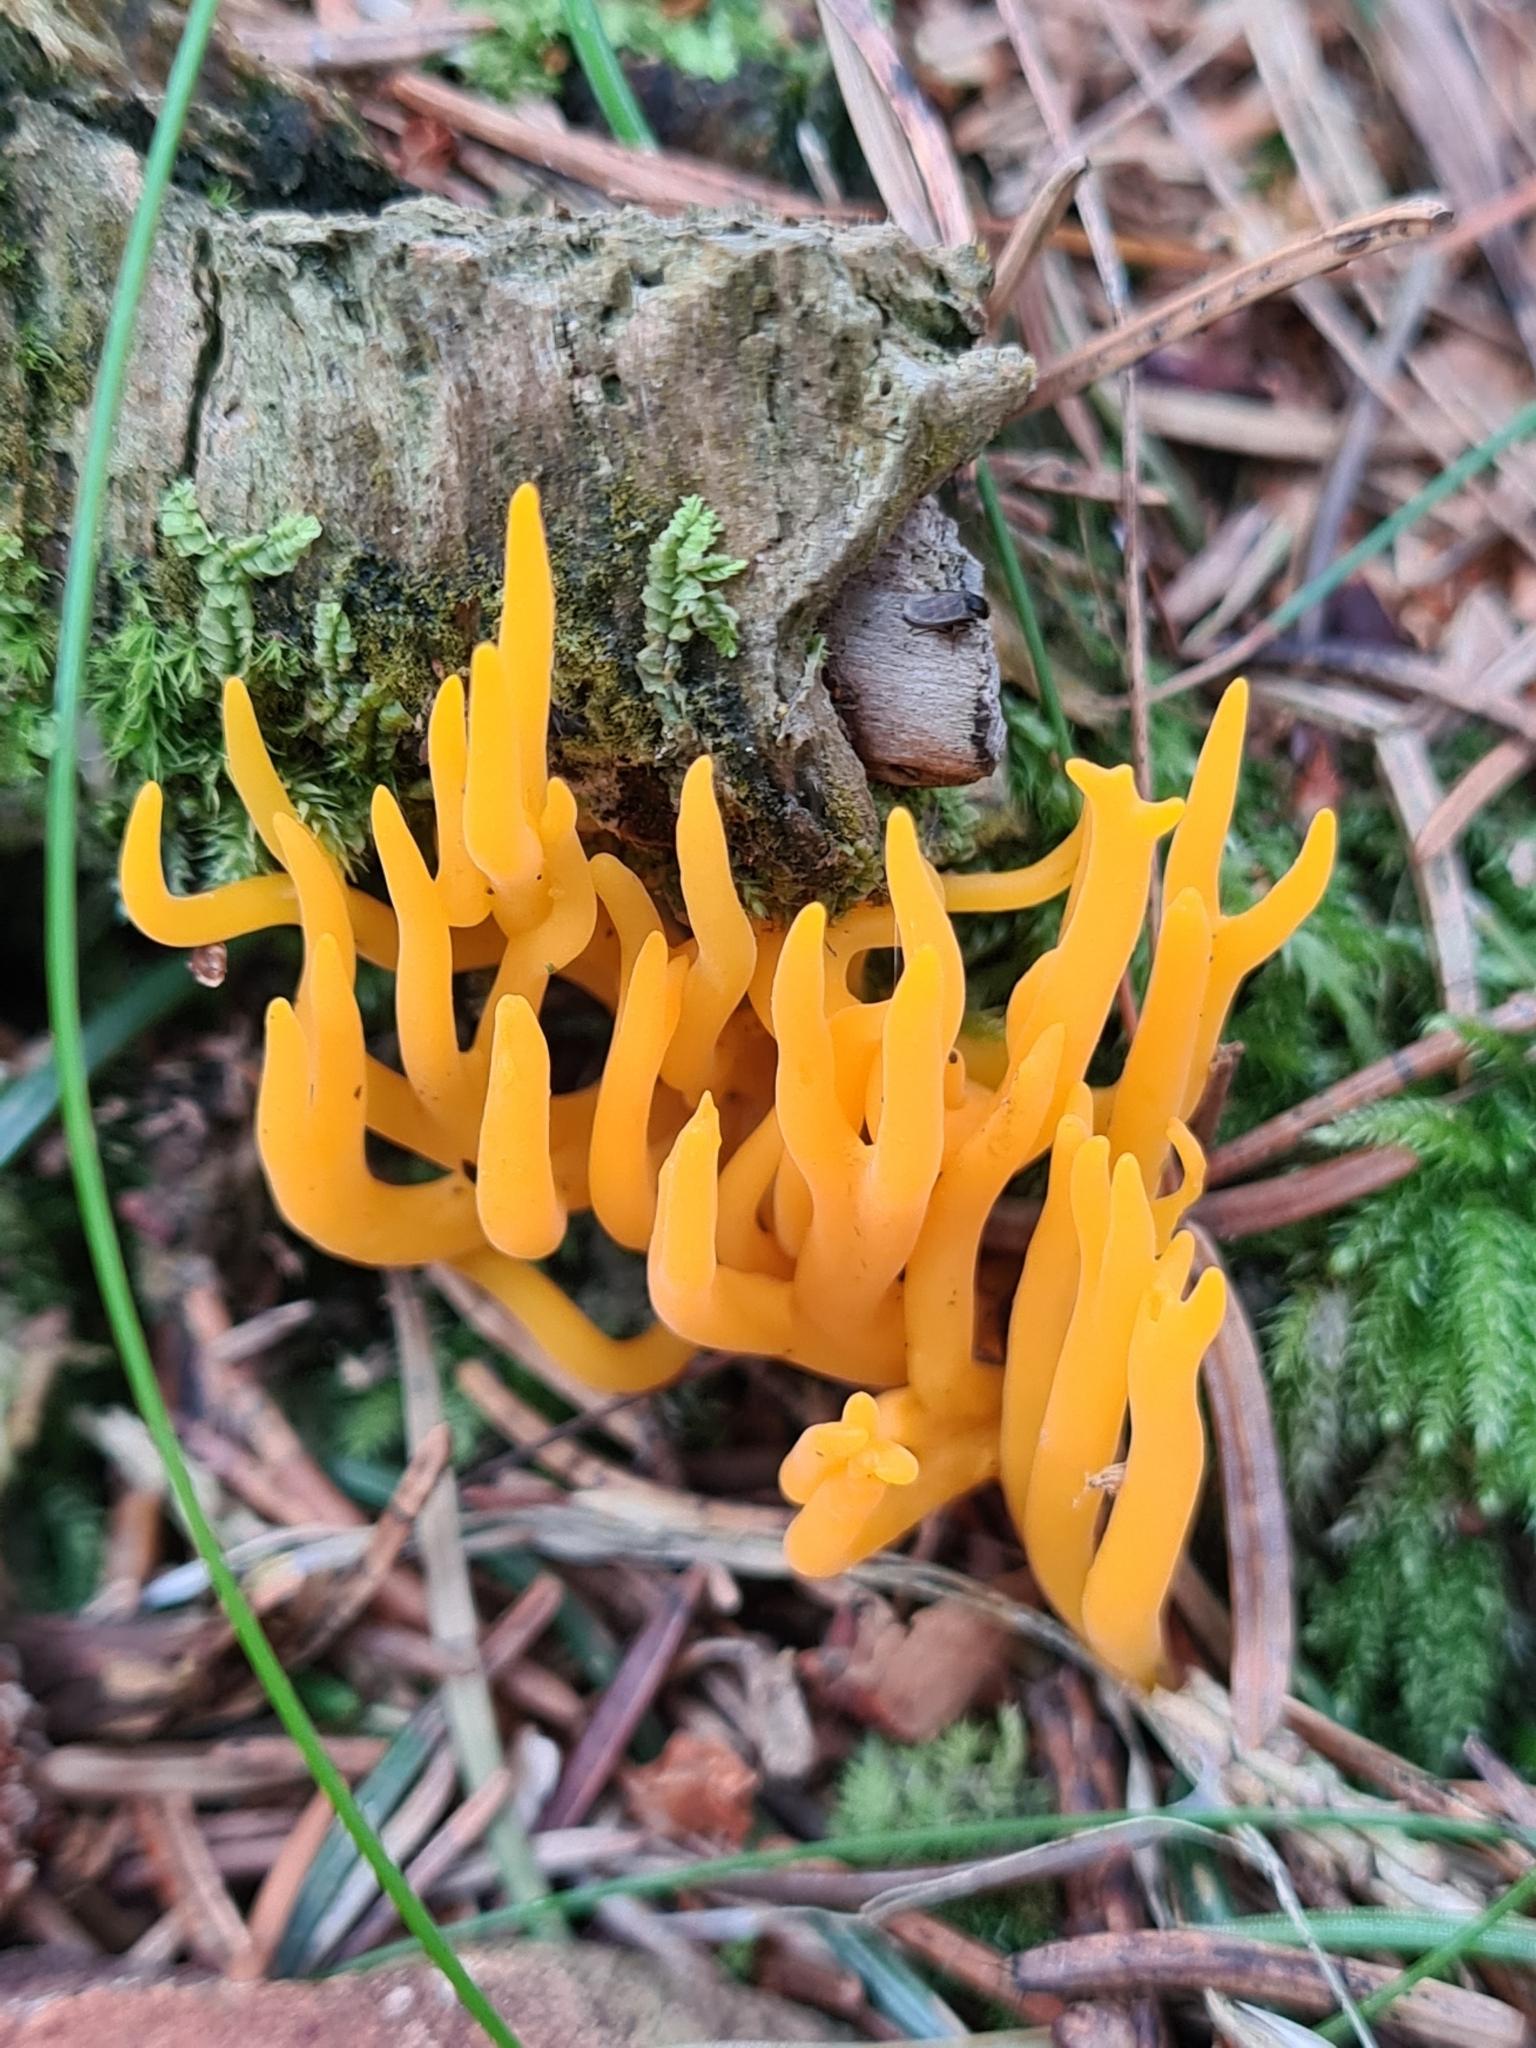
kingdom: Fungi
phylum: Basidiomycota
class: Dacrymycetes
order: Dacrymycetales
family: Dacrymycetaceae
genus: Calocera
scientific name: Calocera viscosa
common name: Yellow stagshorn
